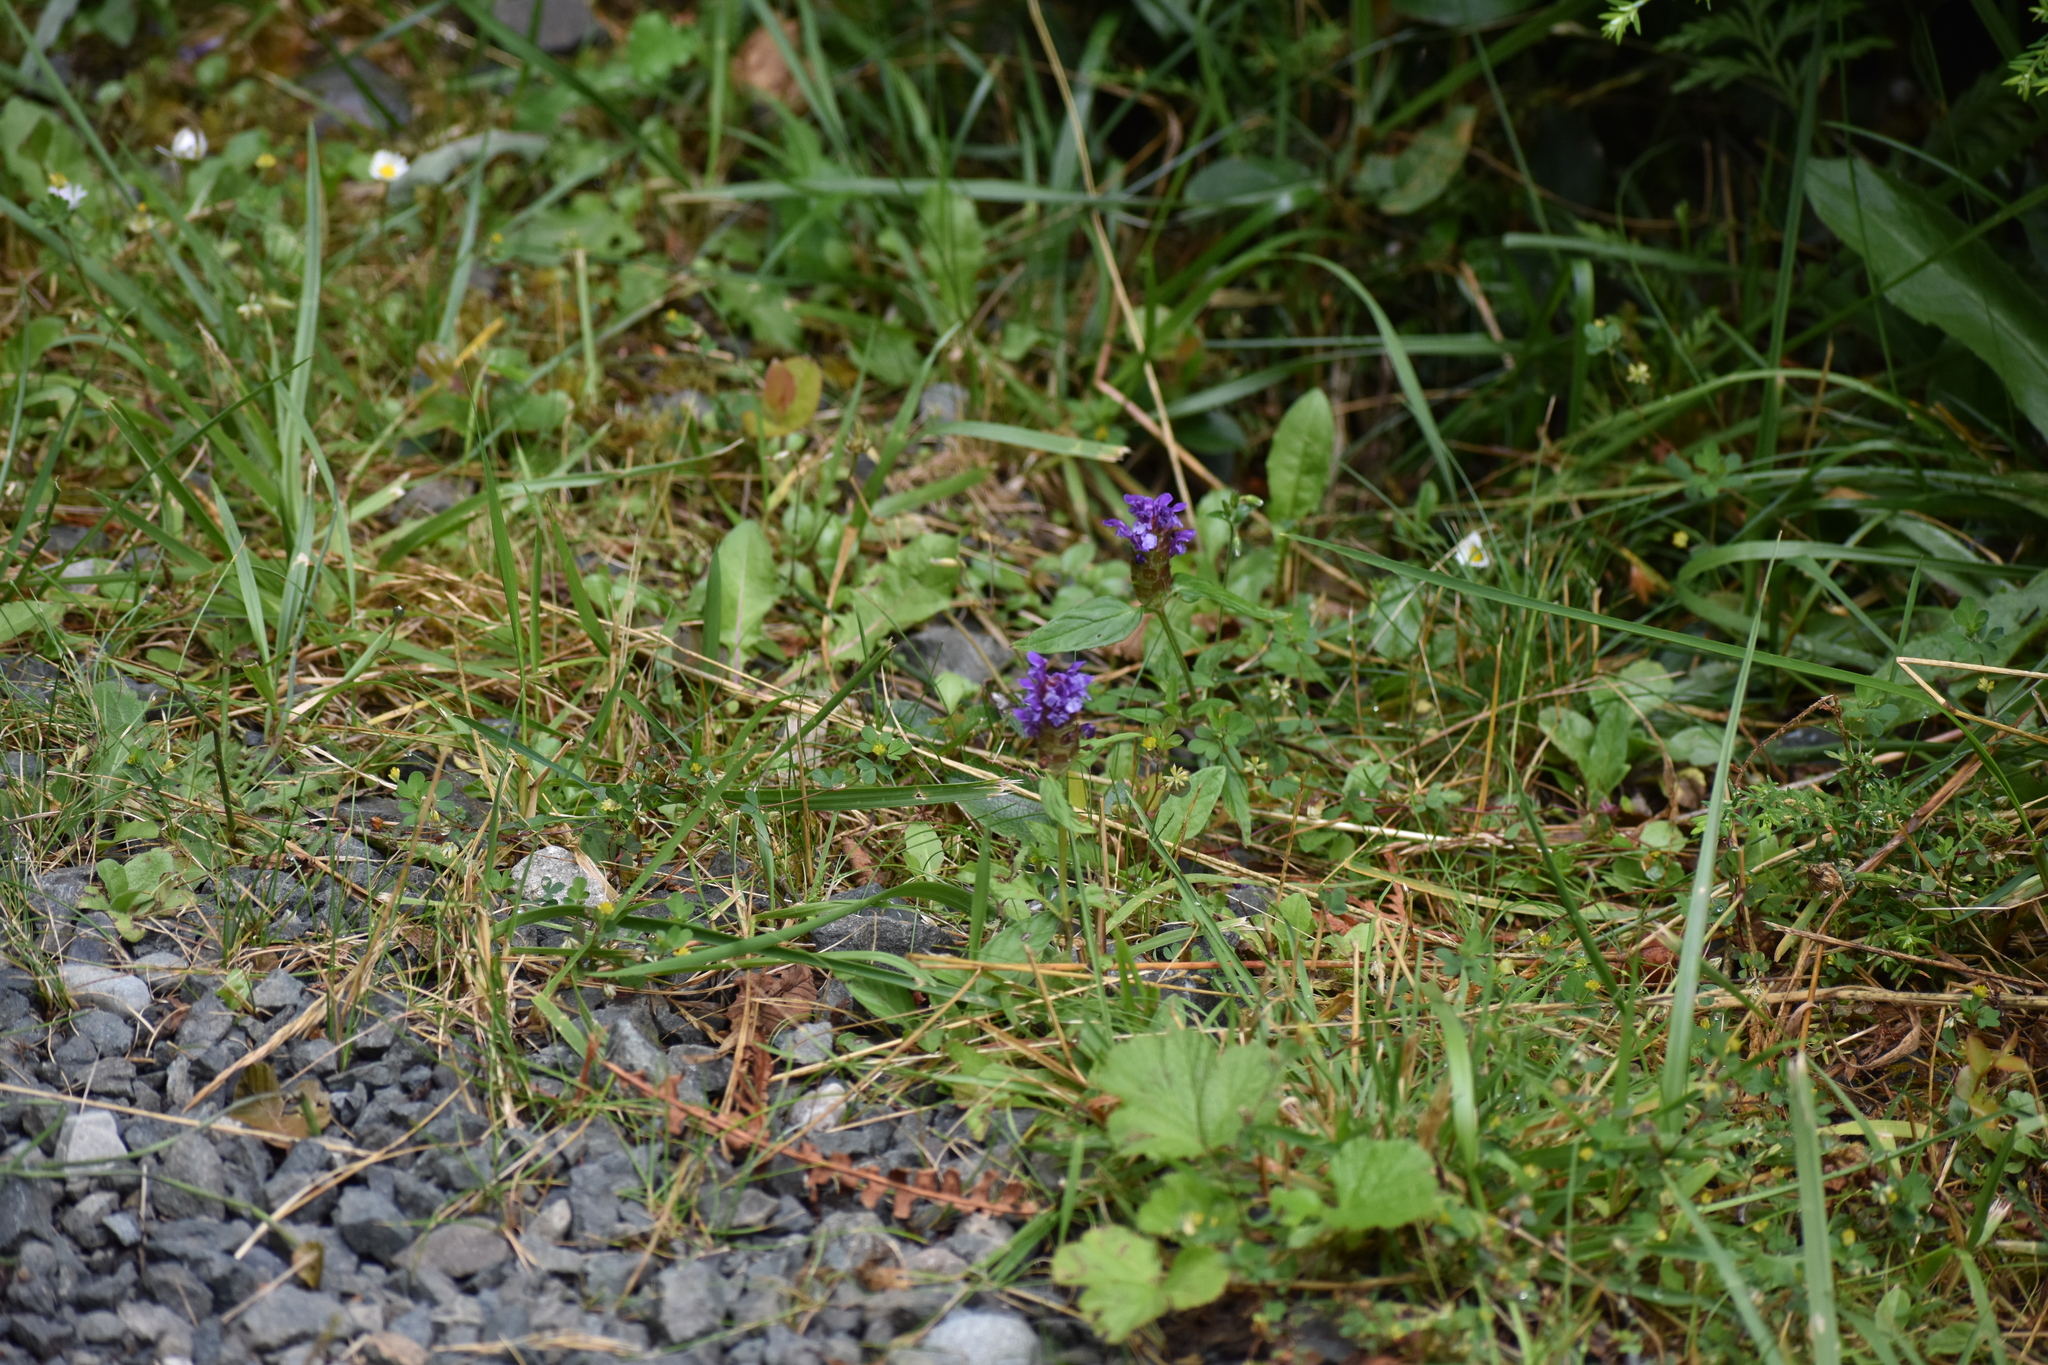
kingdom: Plantae
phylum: Tracheophyta
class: Magnoliopsida
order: Lamiales
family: Lamiaceae
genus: Prunella
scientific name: Prunella vulgaris
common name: Heal-all
